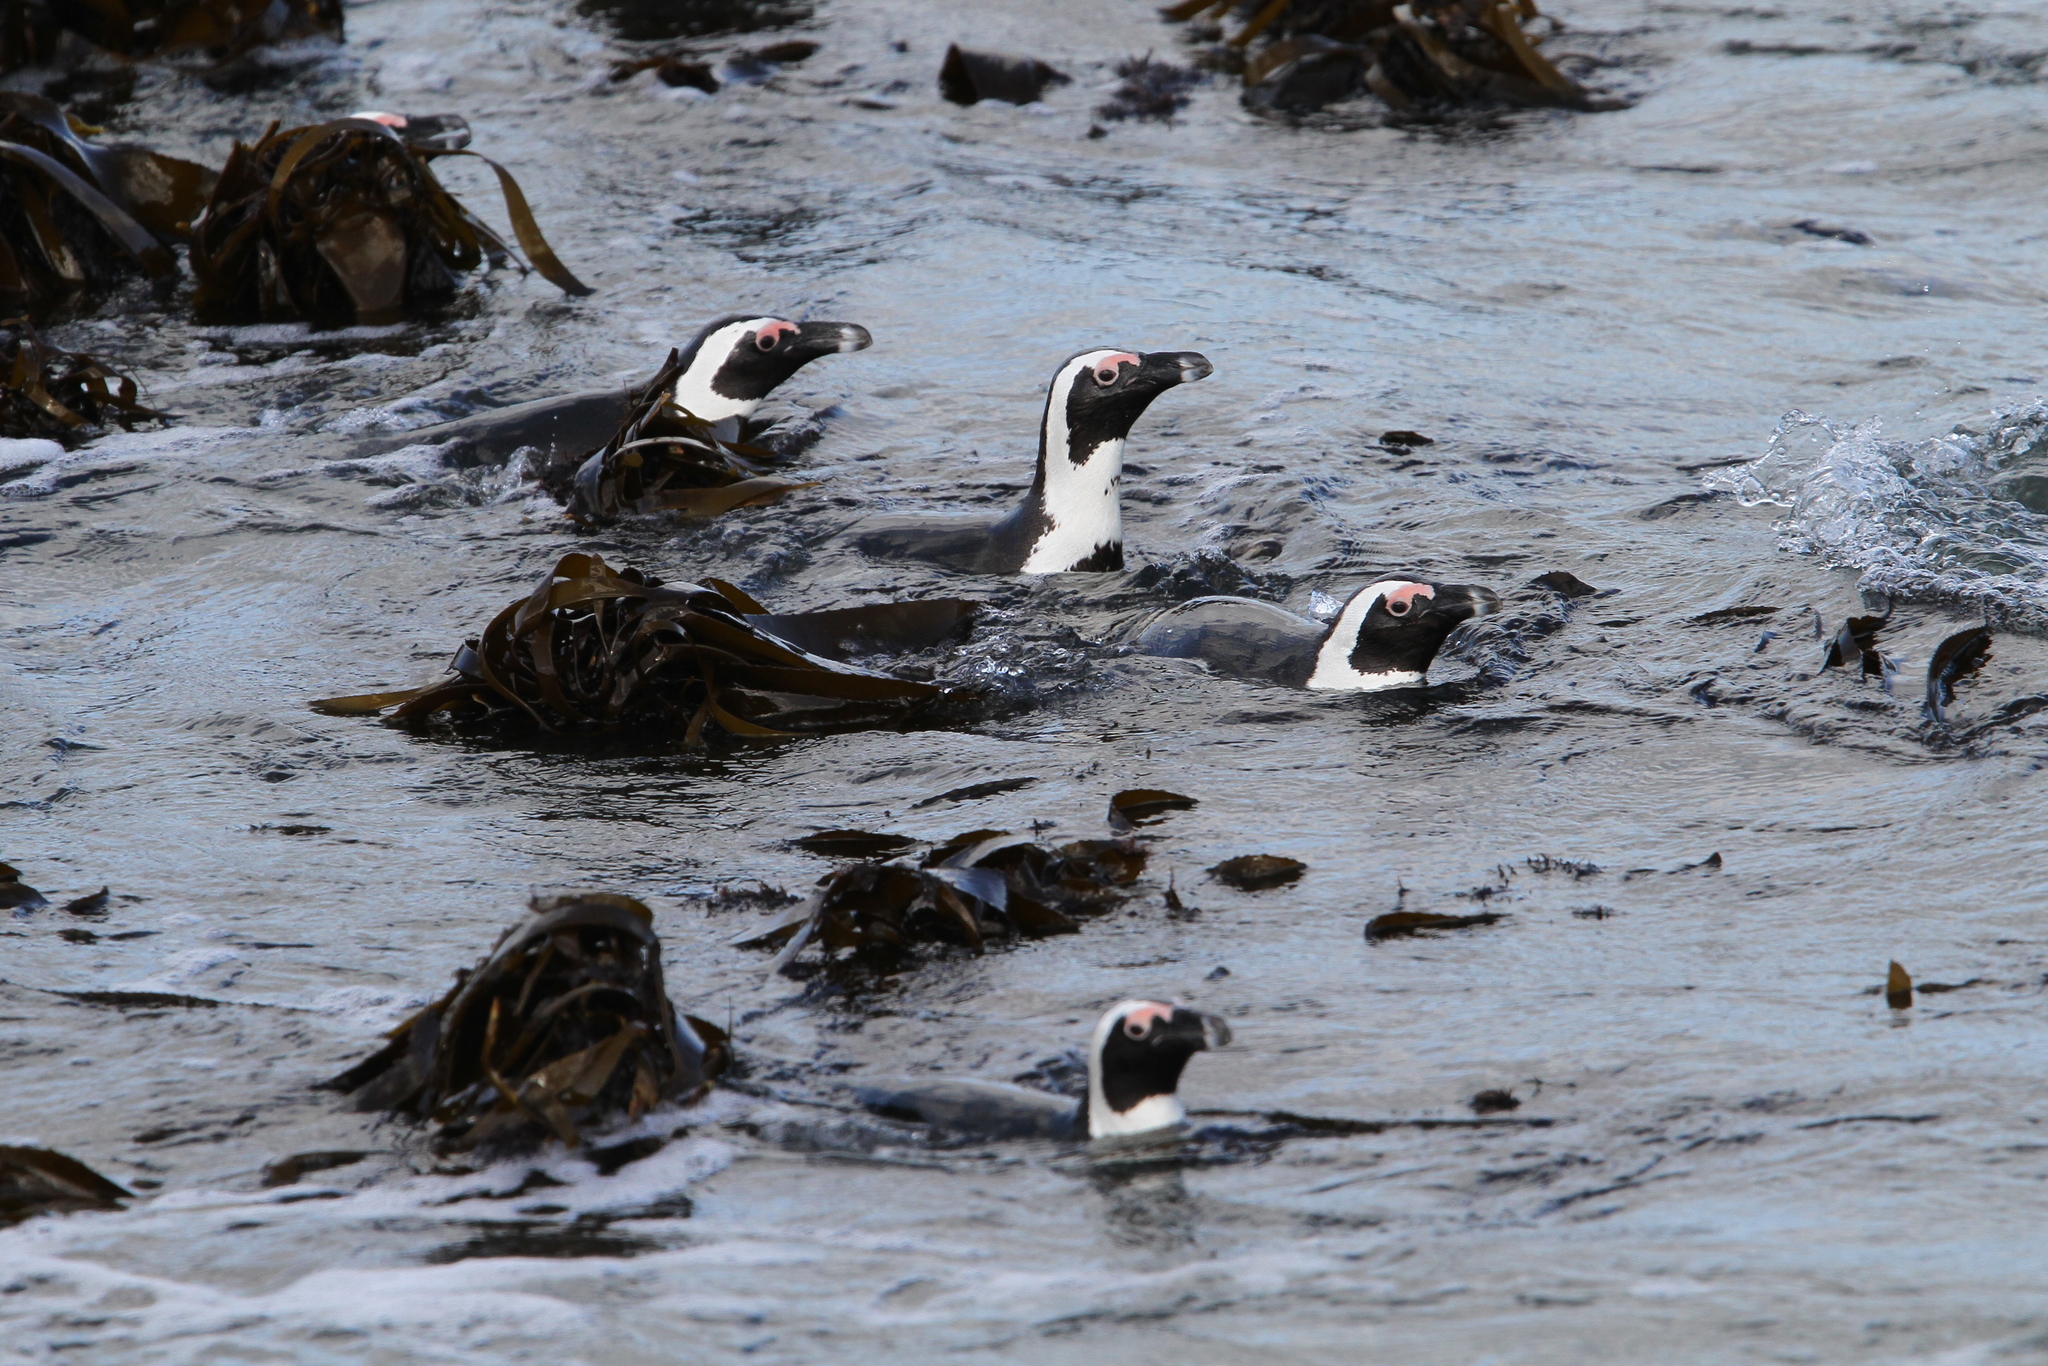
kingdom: Animalia
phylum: Chordata
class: Aves
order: Sphenisciformes
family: Spheniscidae
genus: Spheniscus
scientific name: Spheniscus demersus
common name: African penguin
